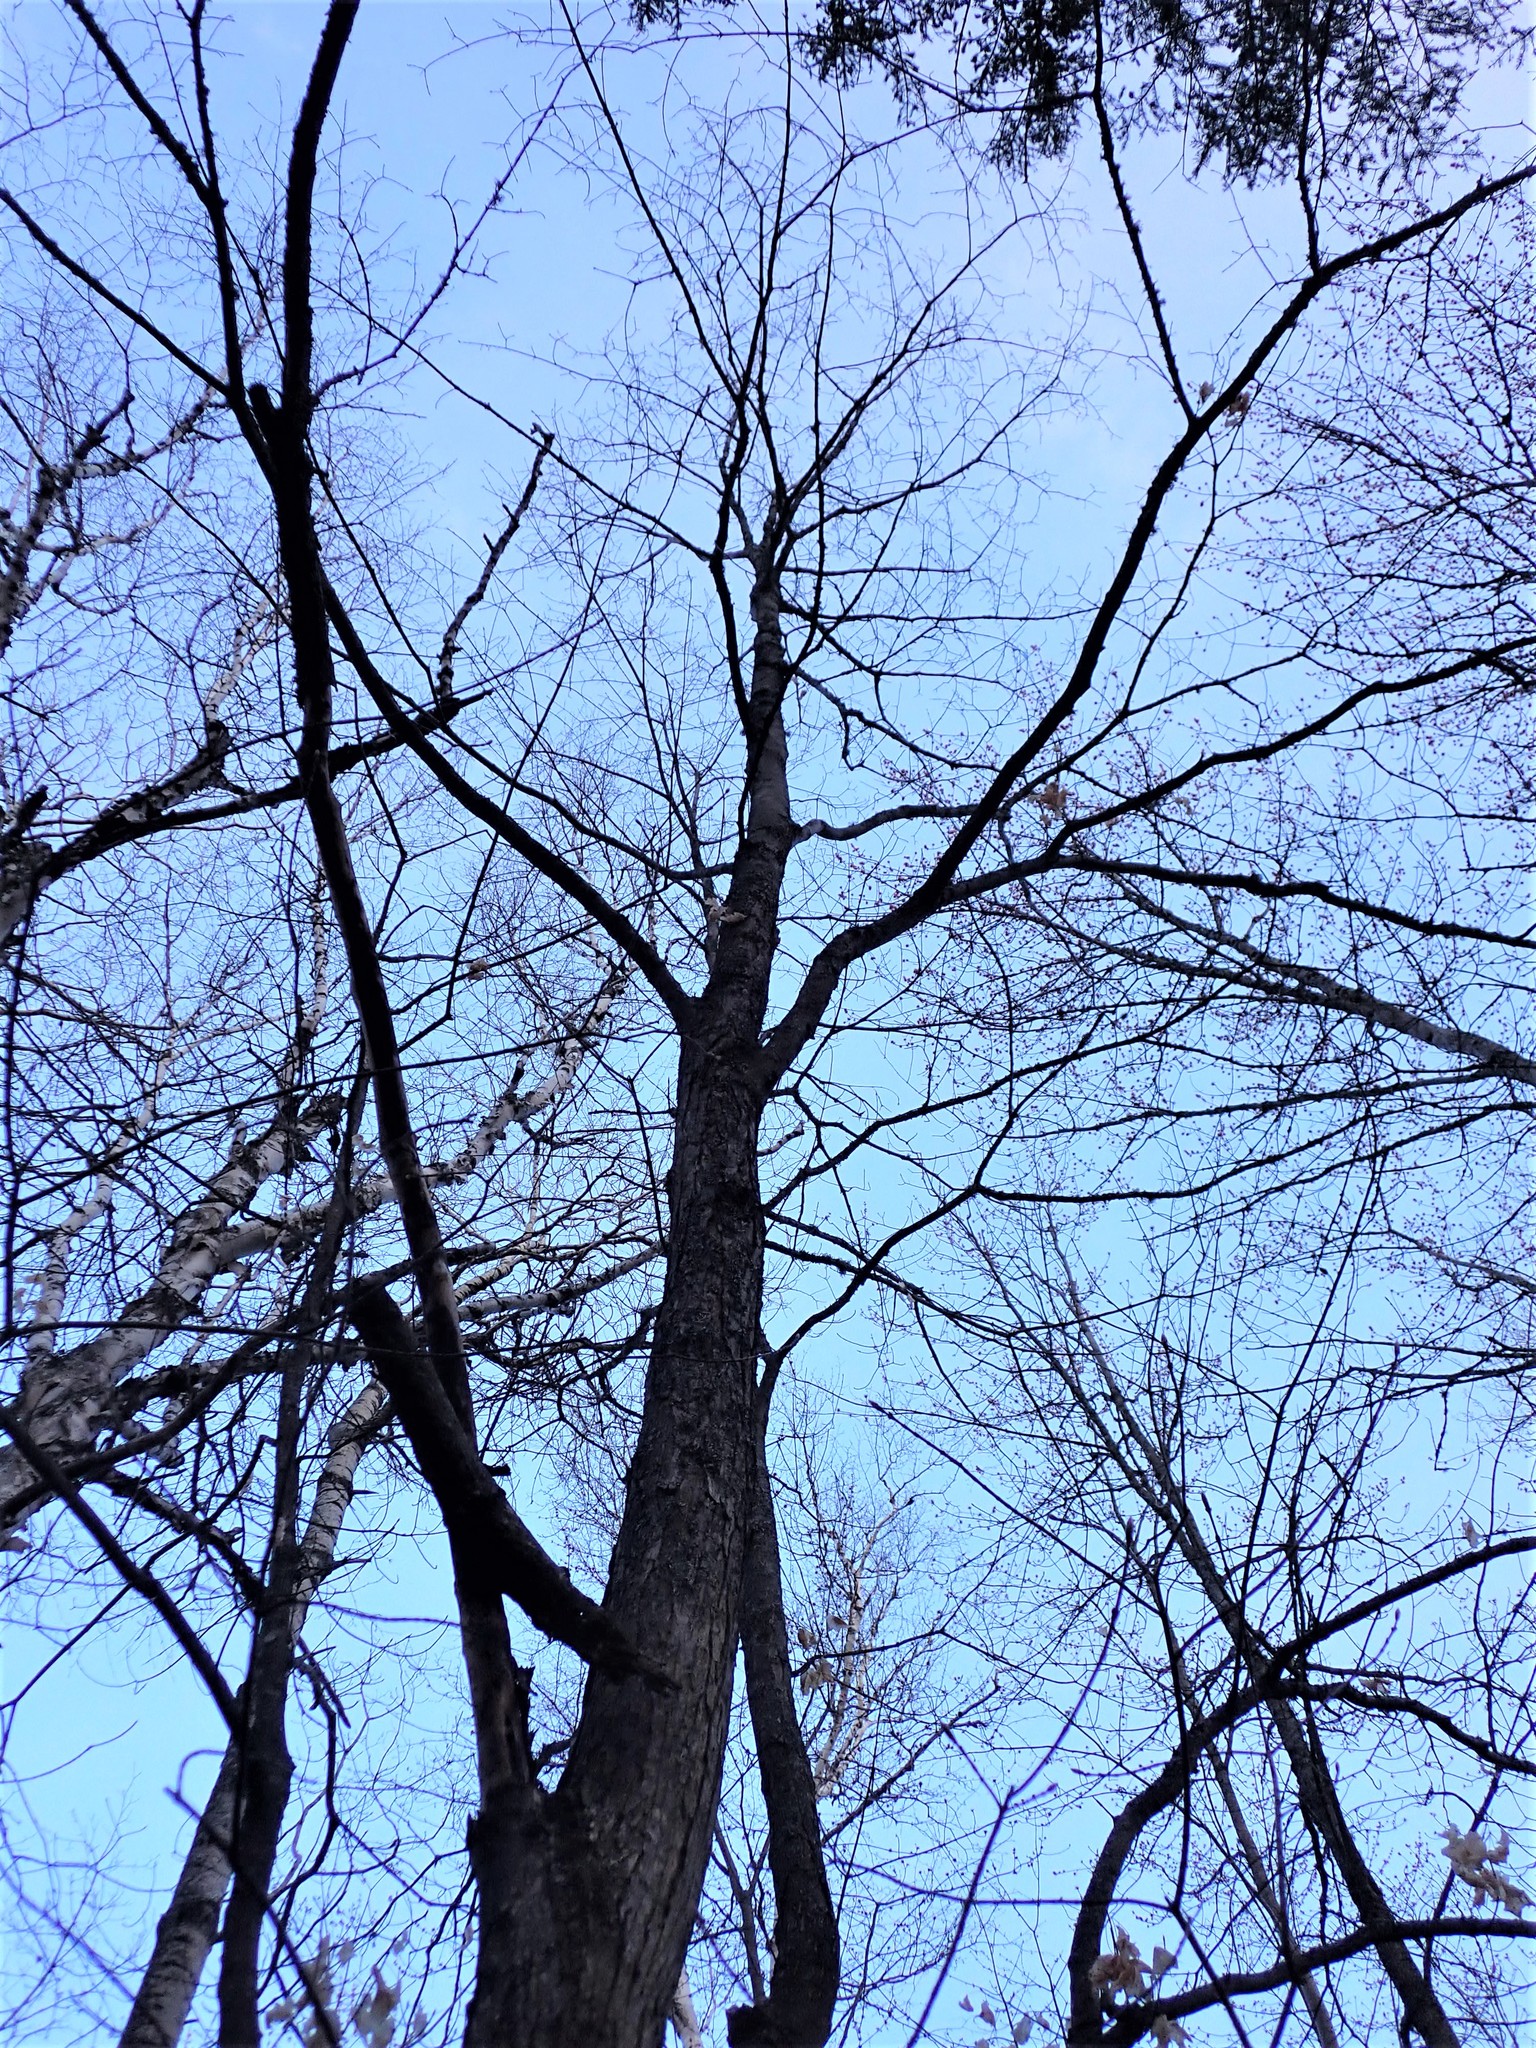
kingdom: Plantae
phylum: Tracheophyta
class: Magnoliopsida
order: Sapindales
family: Sapindaceae
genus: Acer
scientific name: Acer saccharum
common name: Sugar maple
